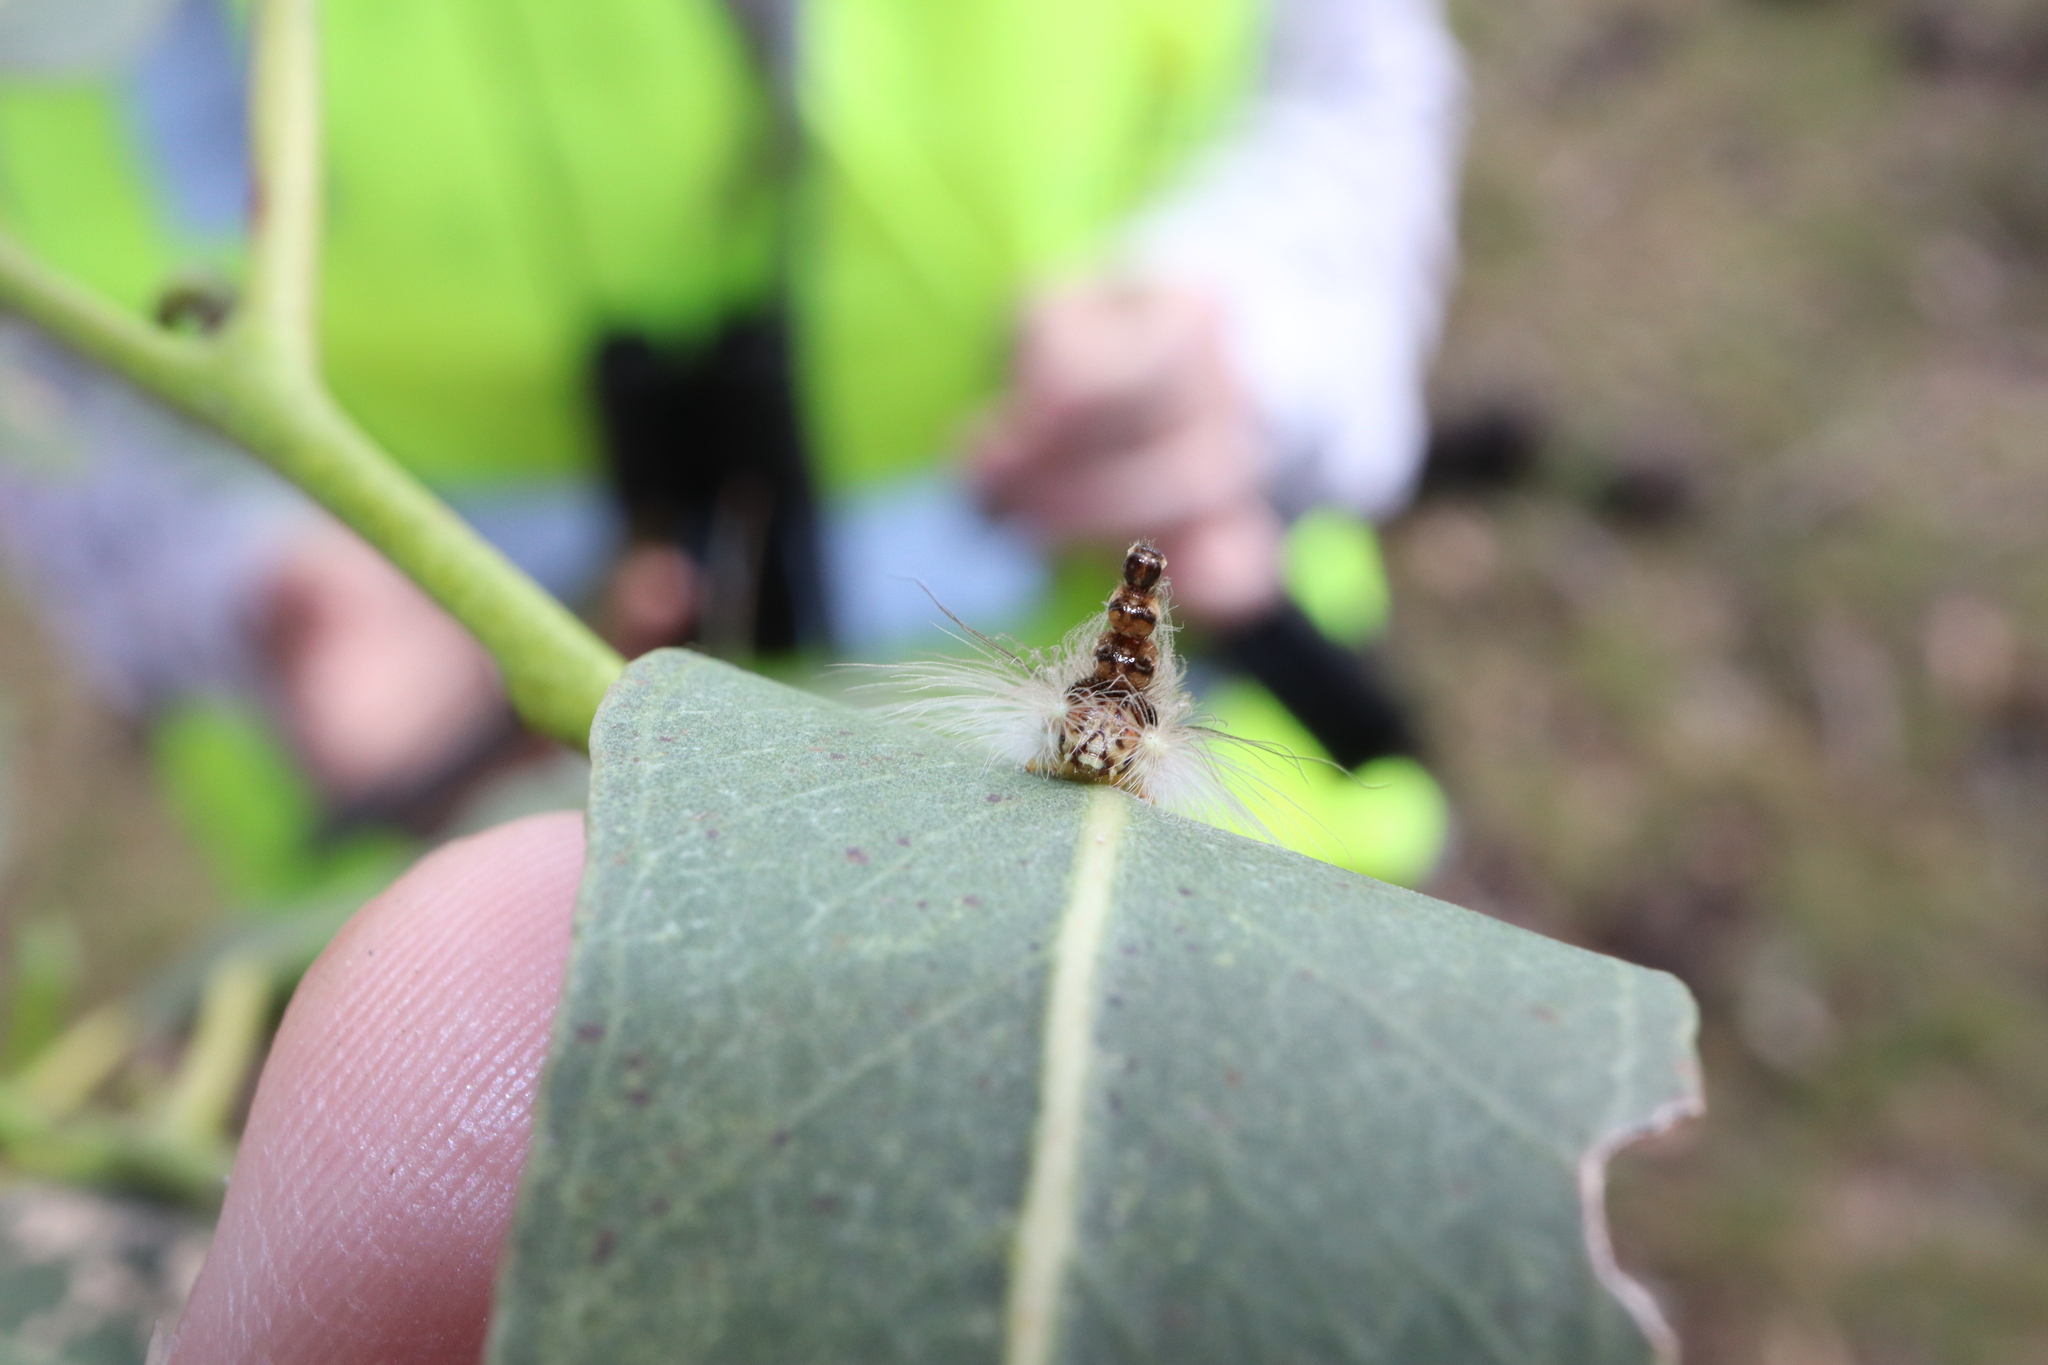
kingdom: Animalia
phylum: Arthropoda
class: Insecta
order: Lepidoptera
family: Nolidae
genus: Uraba
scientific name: Uraba lugens
